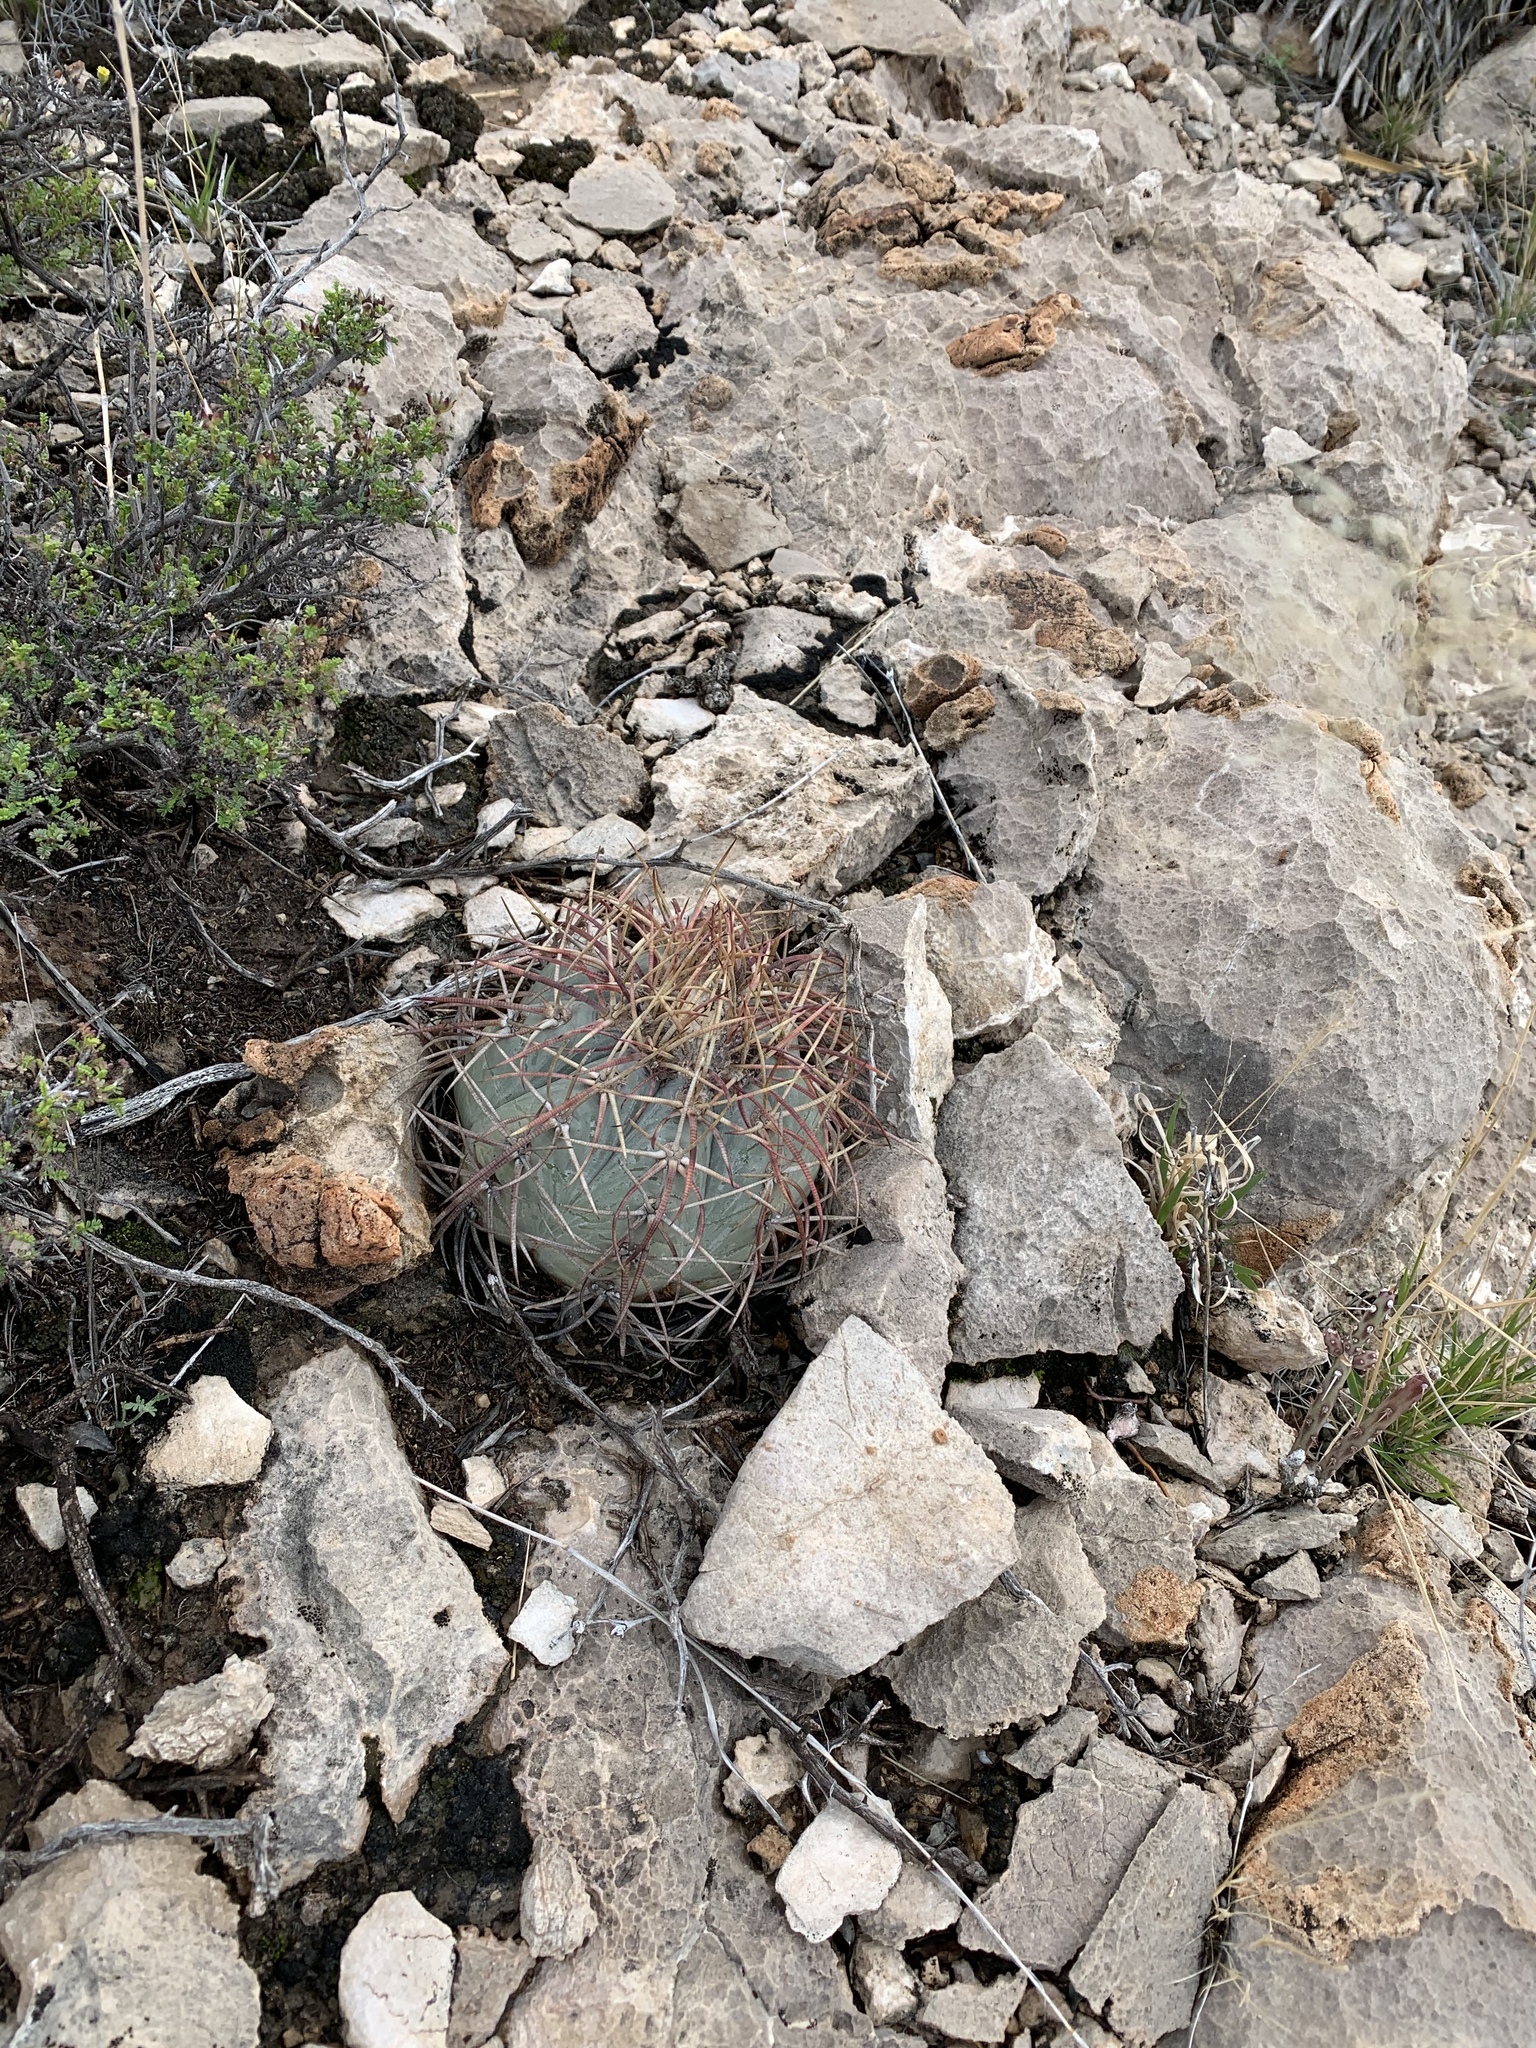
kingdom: Plantae
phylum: Tracheophyta
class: Magnoliopsida
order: Caryophyllales
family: Cactaceae
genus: Echinocactus
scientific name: Echinocactus horizonthalonius
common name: Devilshead
